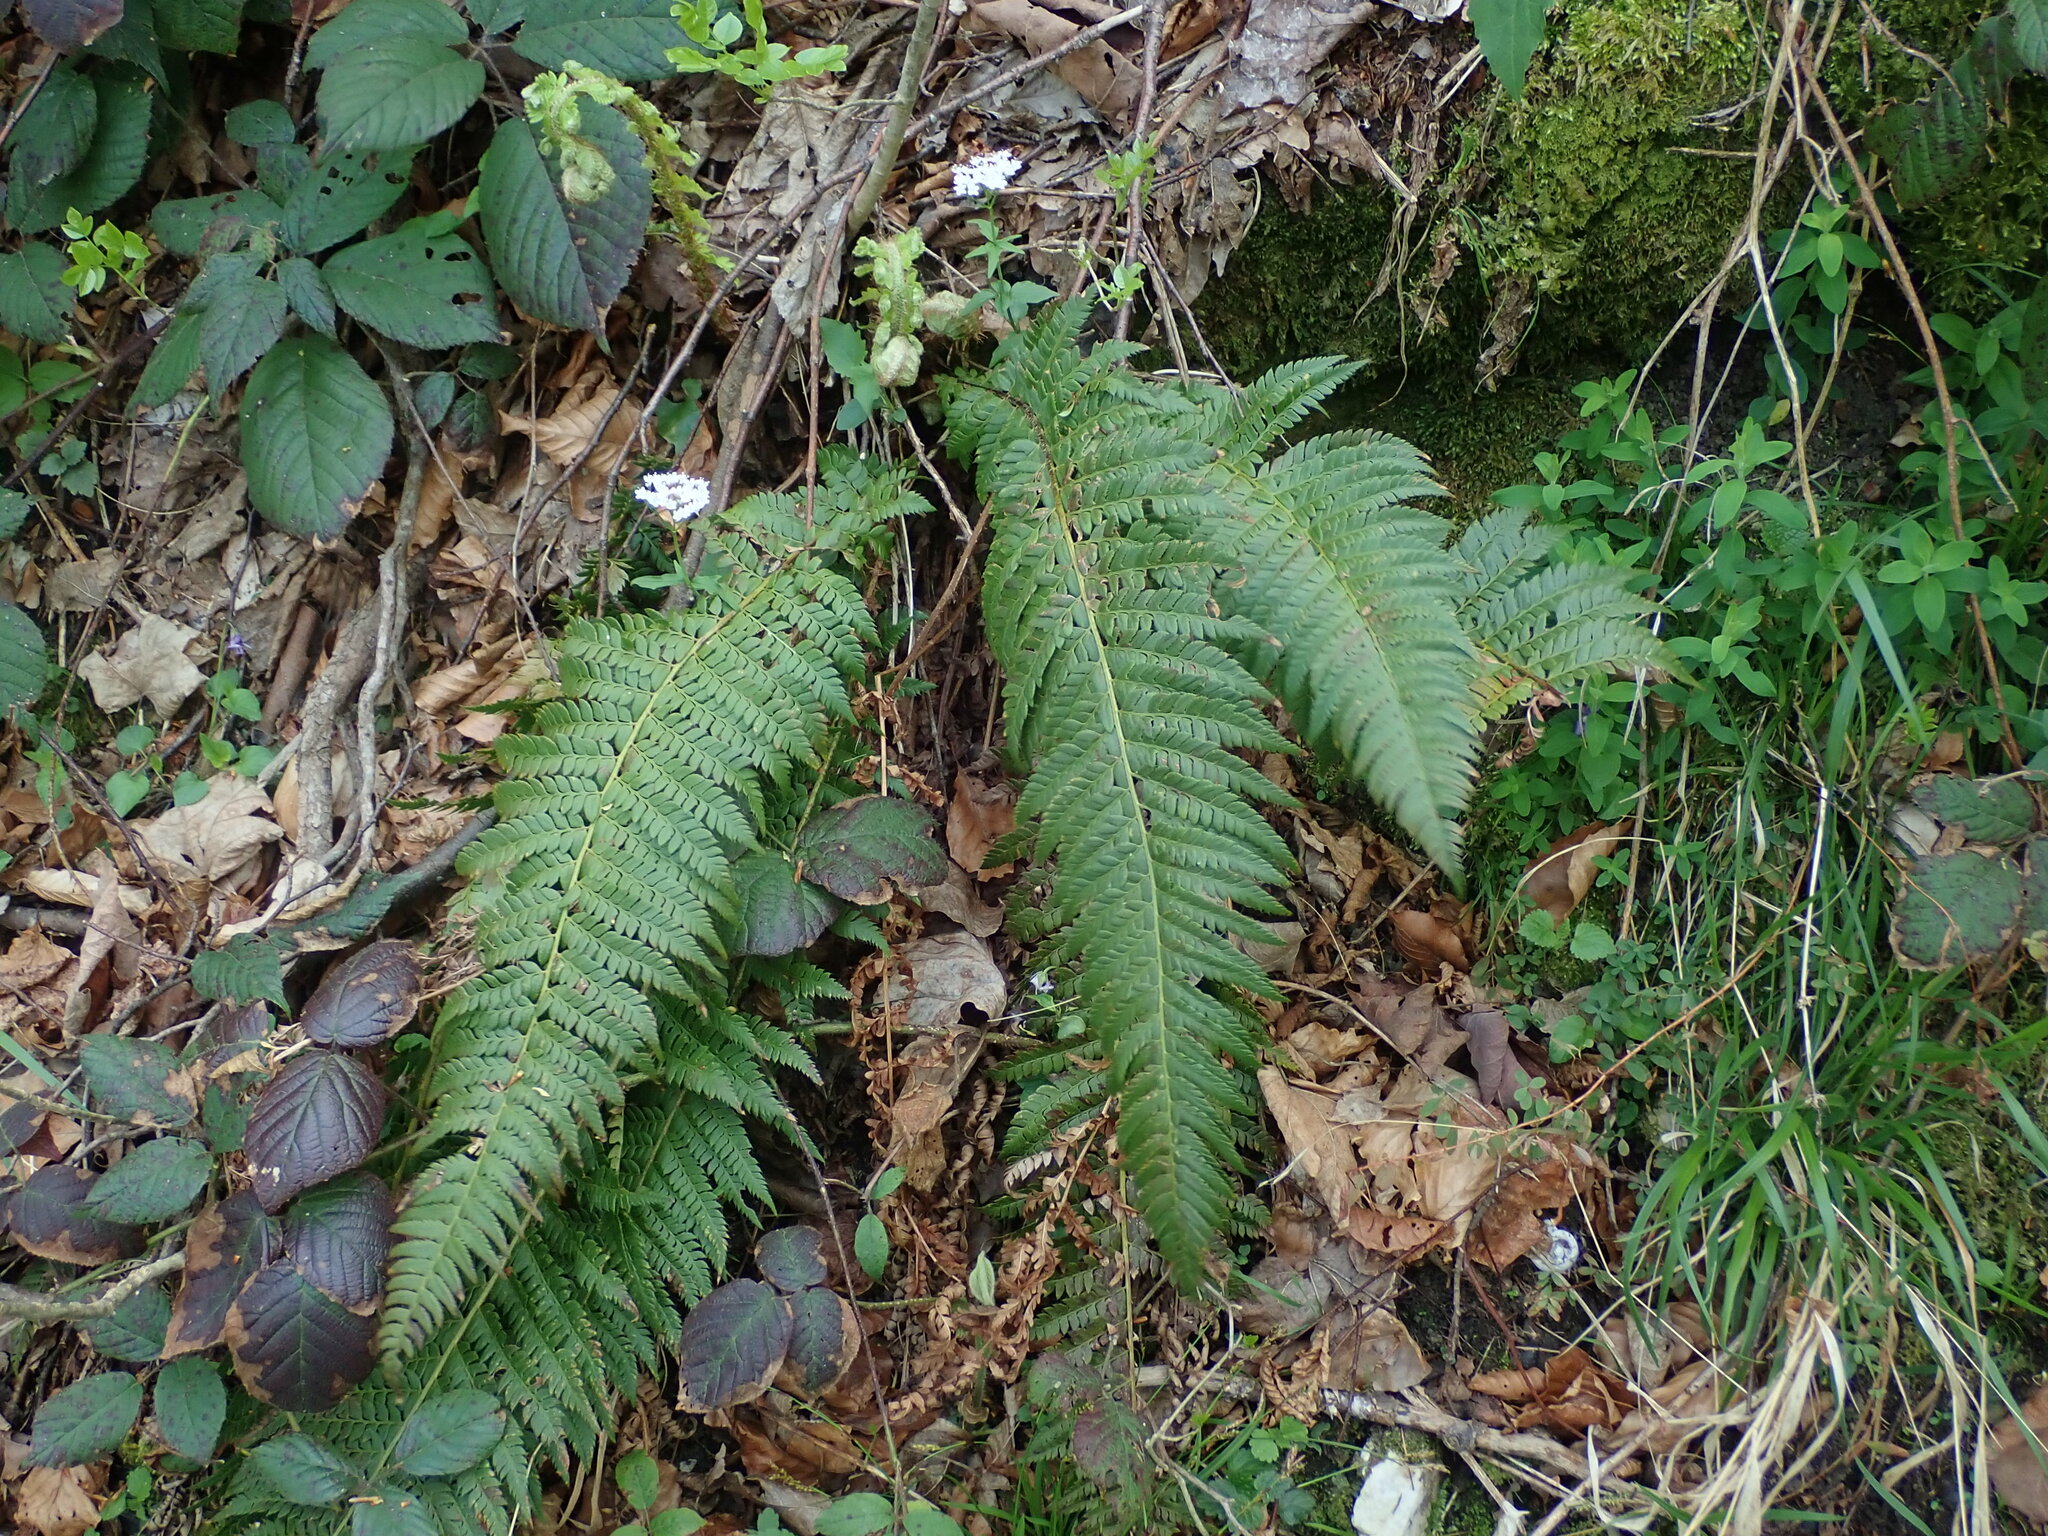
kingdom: Plantae
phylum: Tracheophyta
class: Polypodiopsida
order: Polypodiales
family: Dryopteridaceae
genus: Polystichum
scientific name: Polystichum aculeatum
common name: Hard shield-fern
